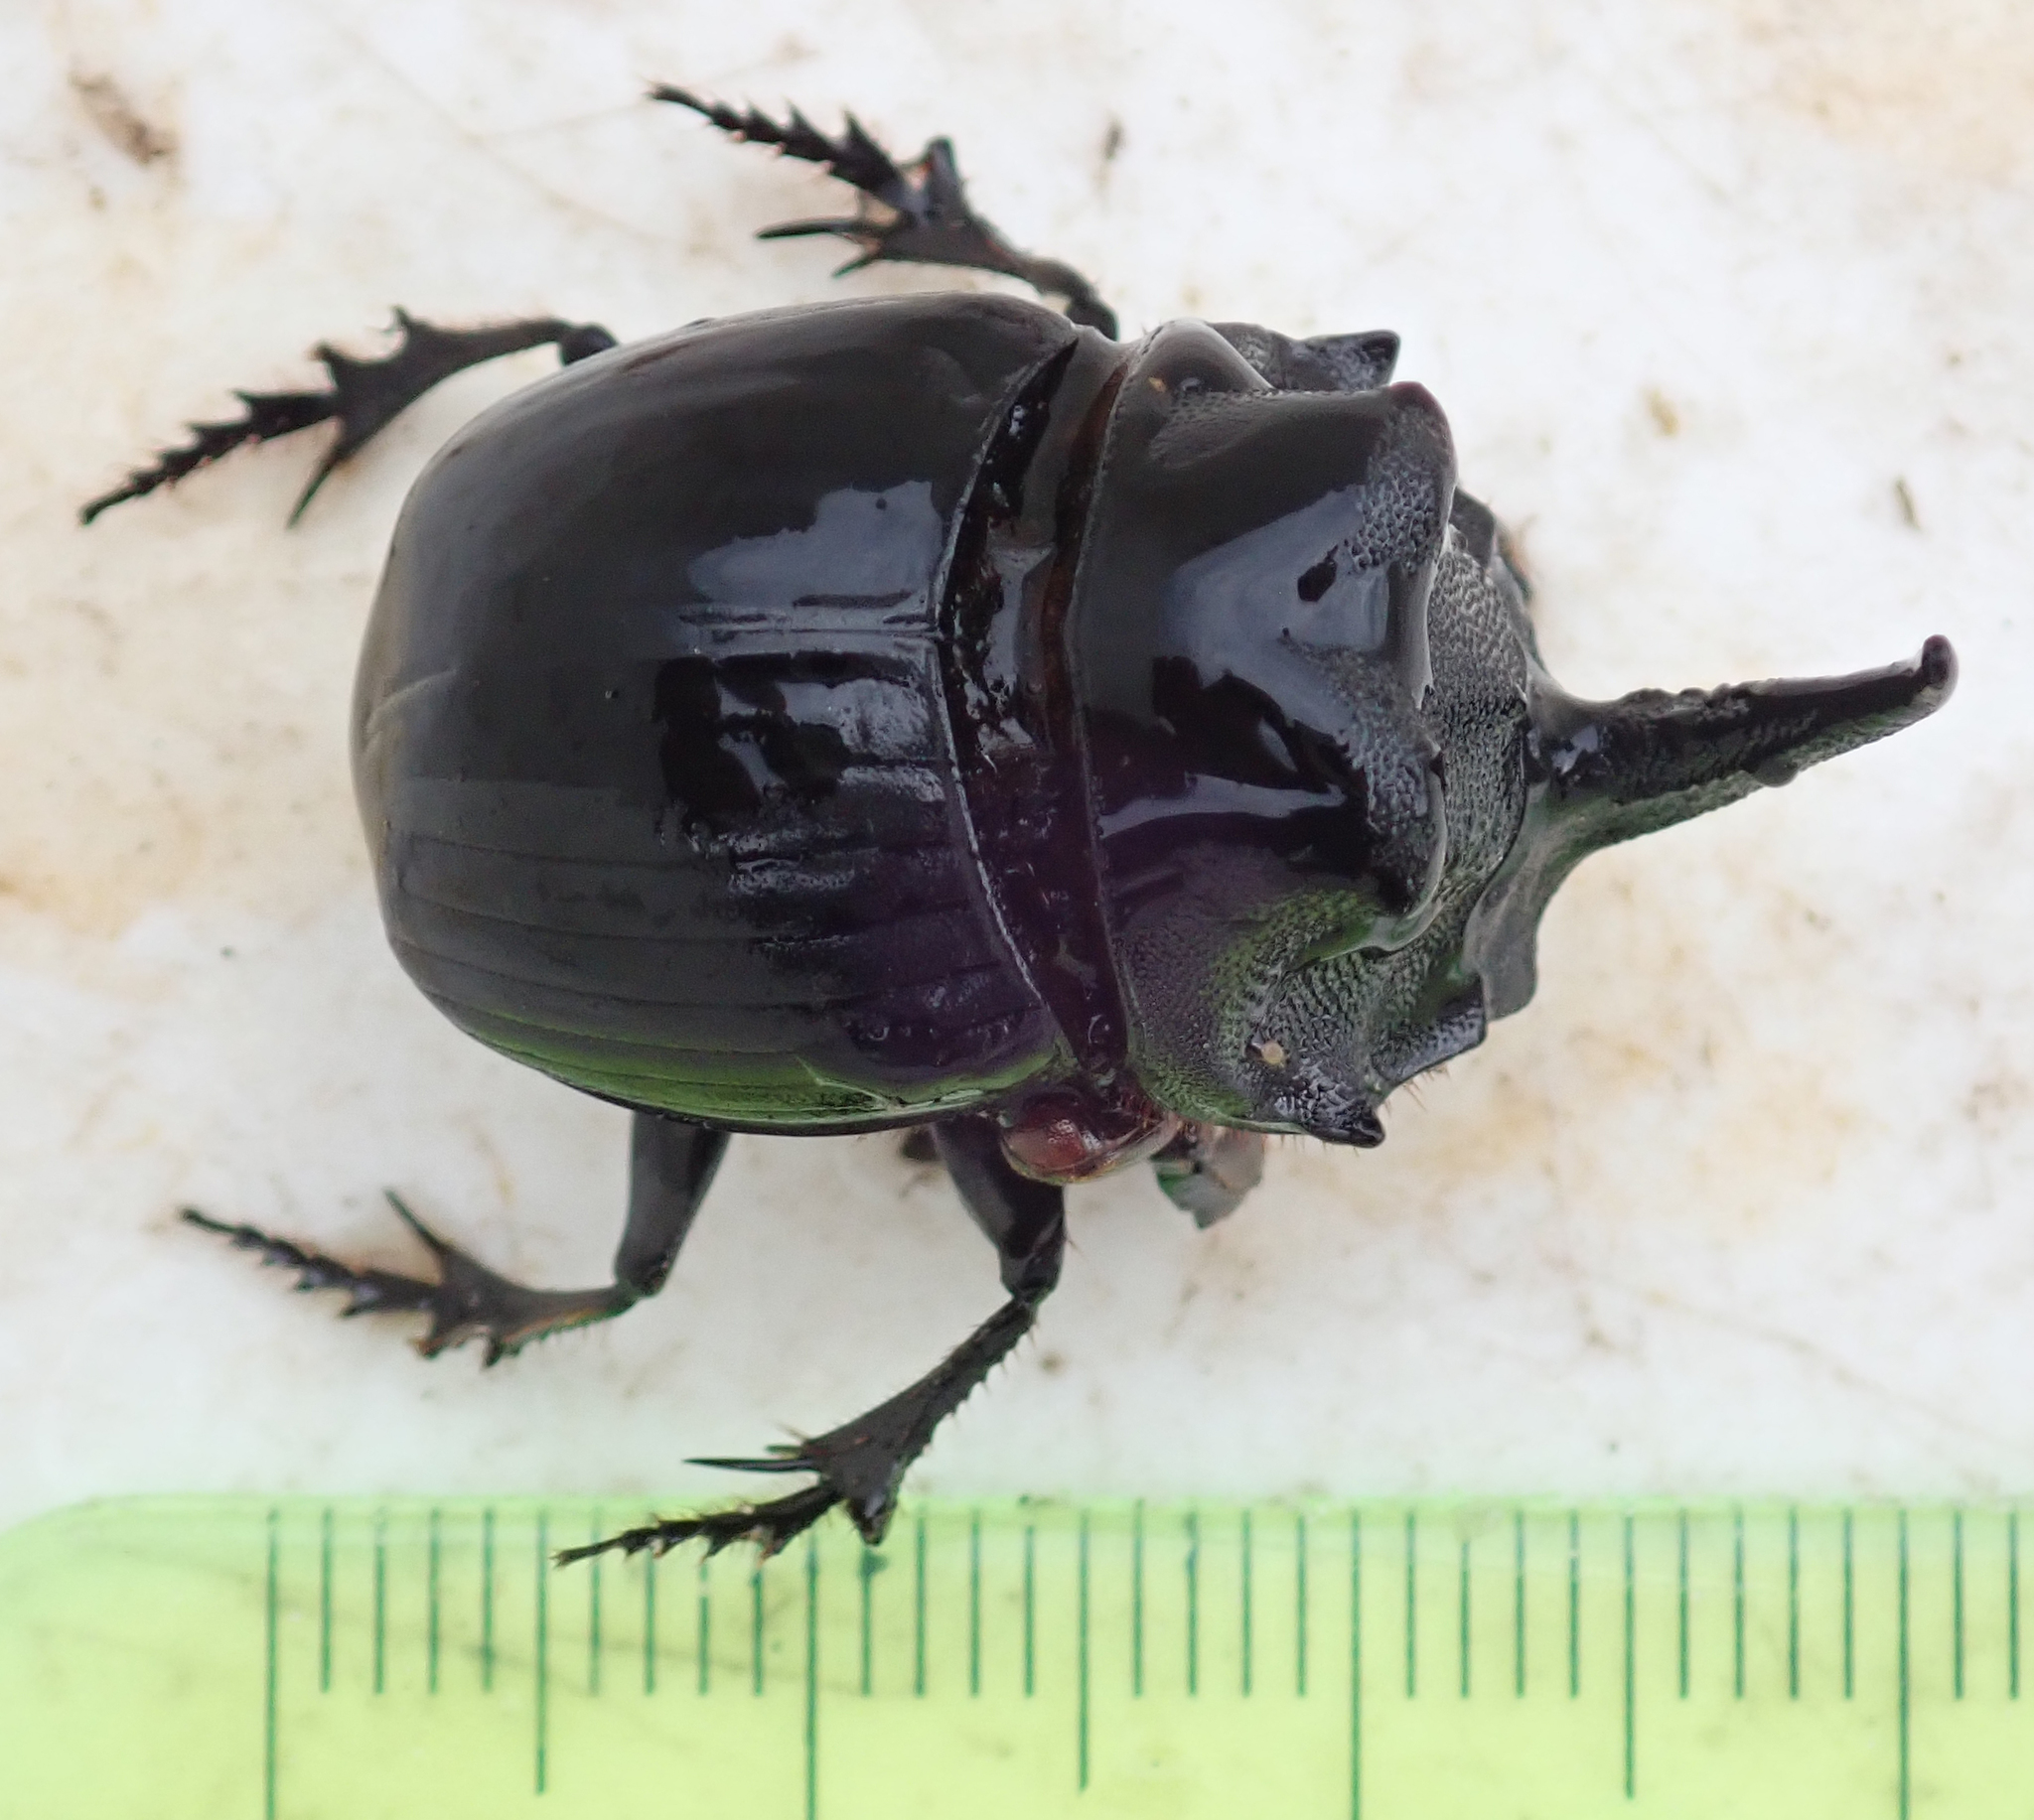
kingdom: Animalia
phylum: Arthropoda
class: Insecta
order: Coleoptera
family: Scarabaeidae
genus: Copris
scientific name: Copris elphenor
